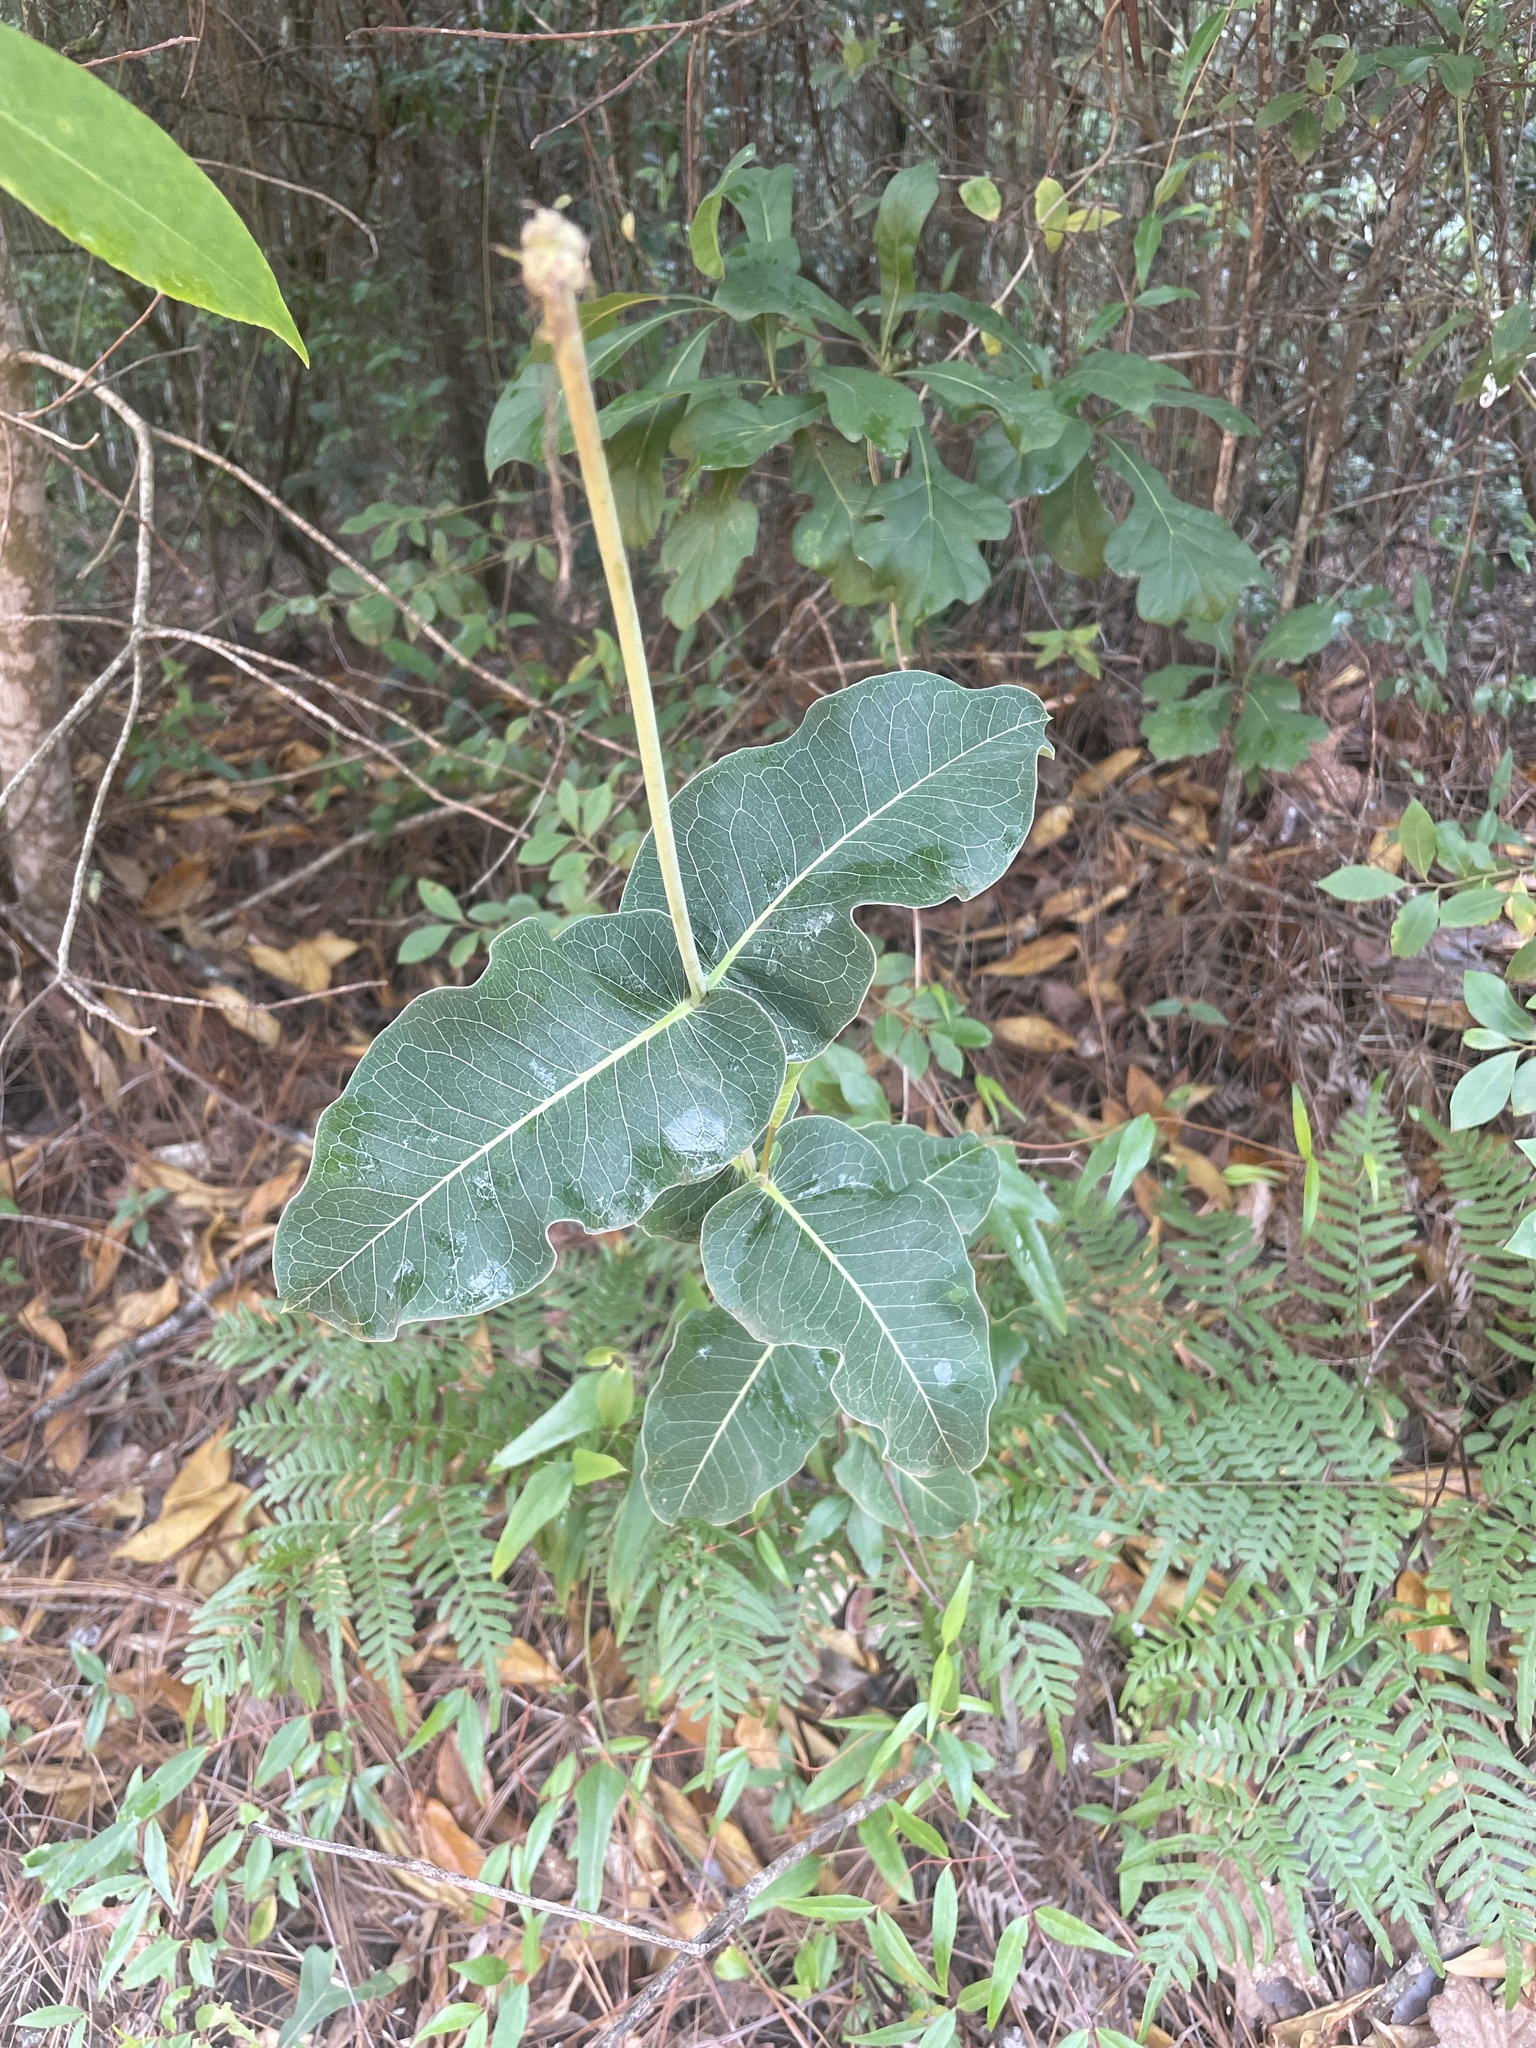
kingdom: Plantae
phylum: Tracheophyta
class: Magnoliopsida
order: Gentianales
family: Apocynaceae
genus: Asclepias
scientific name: Asclepias amplexicaulis
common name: Blunt-leaf milkweed
